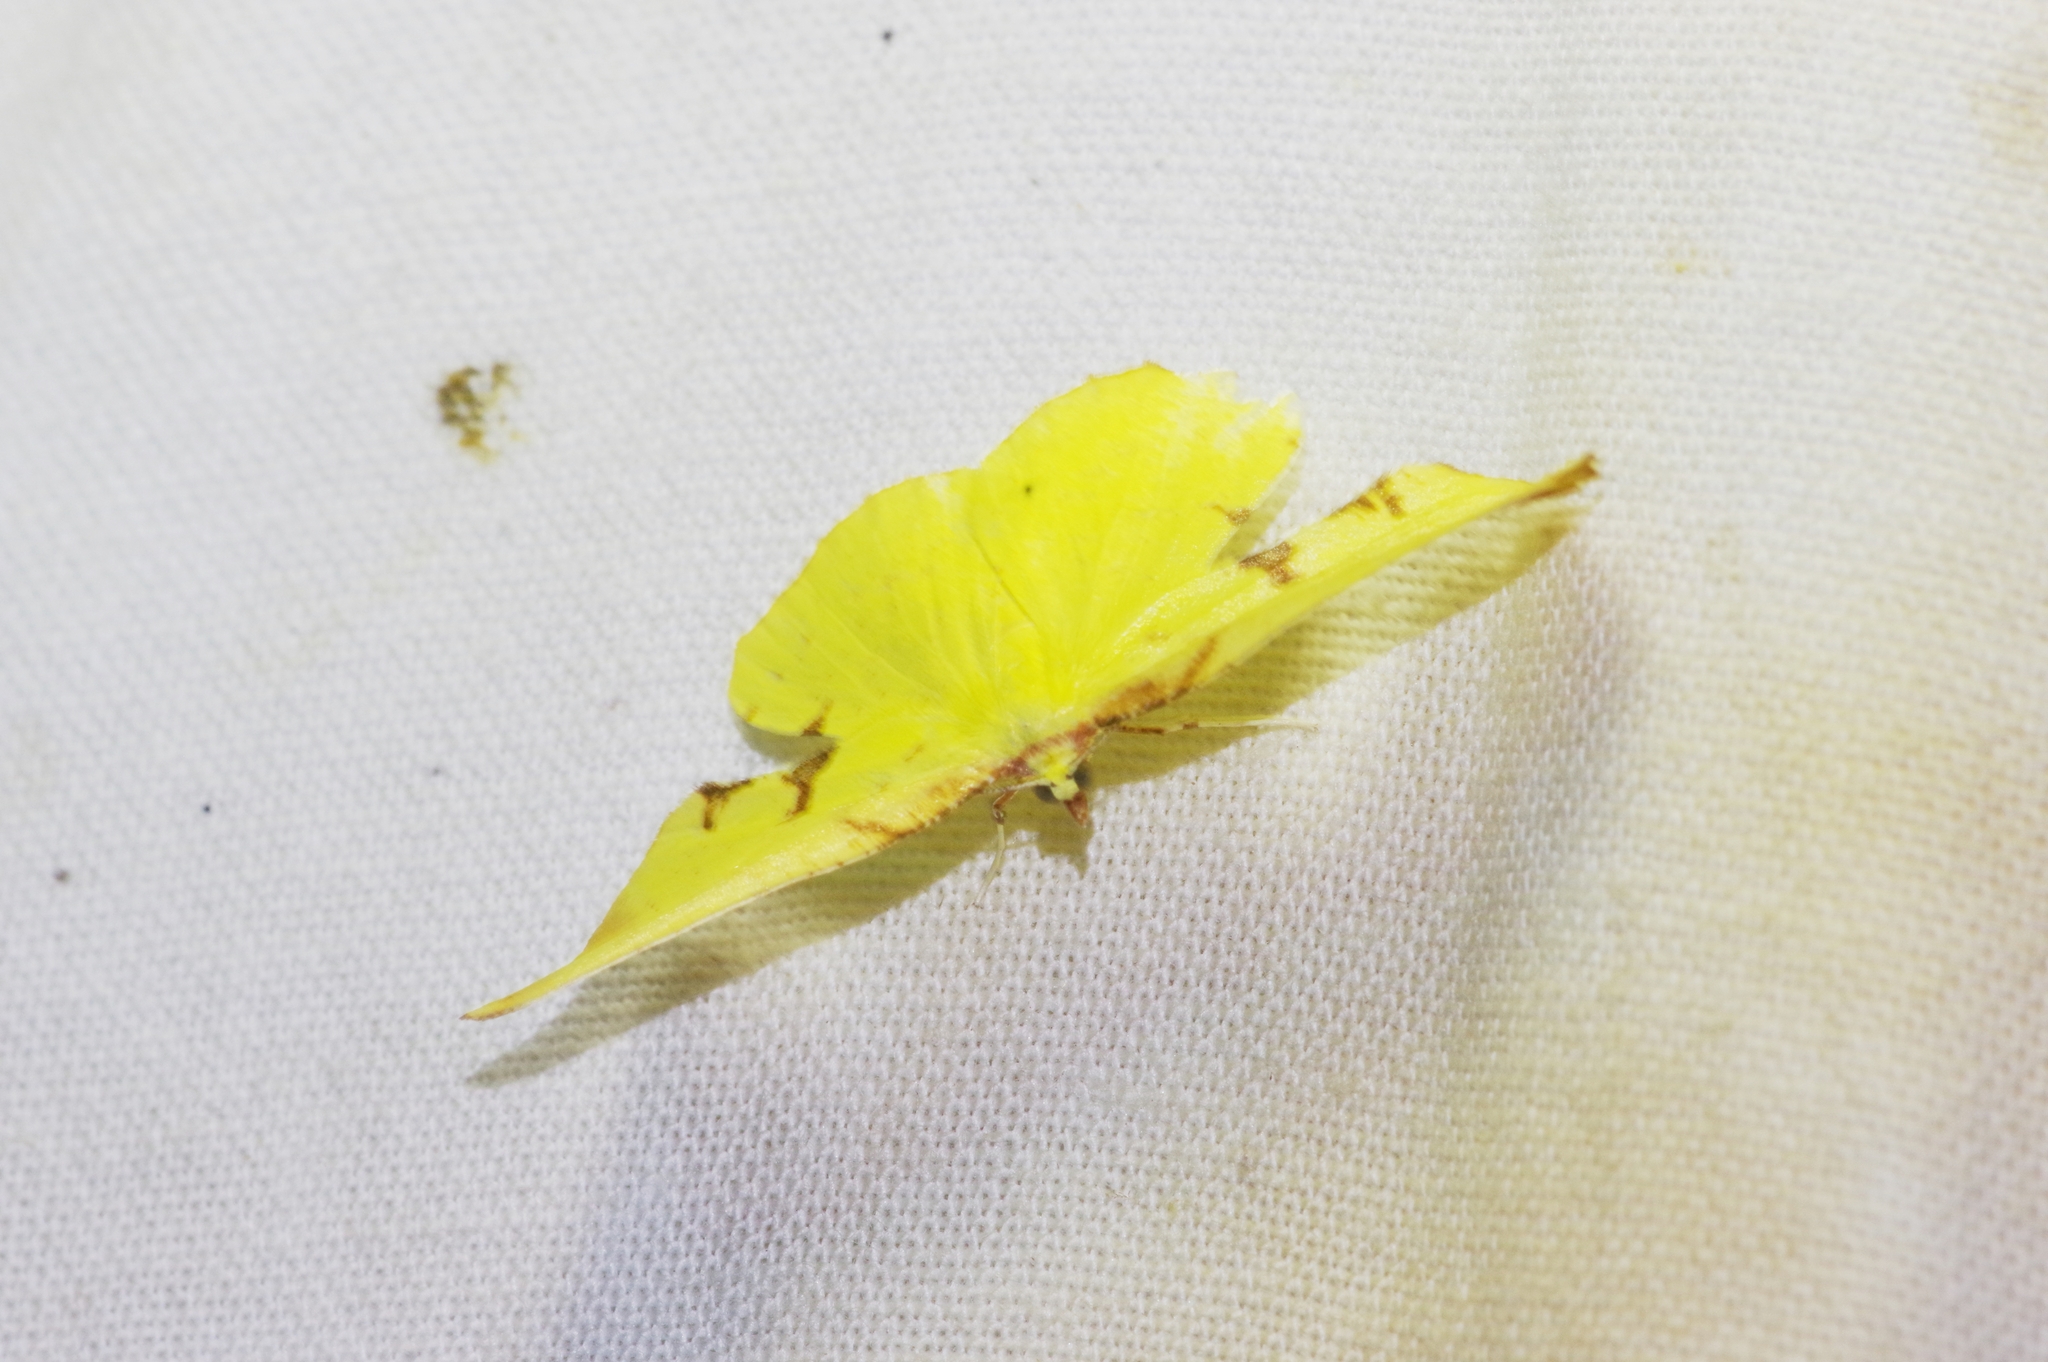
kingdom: Animalia
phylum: Arthropoda
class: Insecta
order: Lepidoptera
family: Geometridae
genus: Corymica
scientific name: Corymica pryeri
